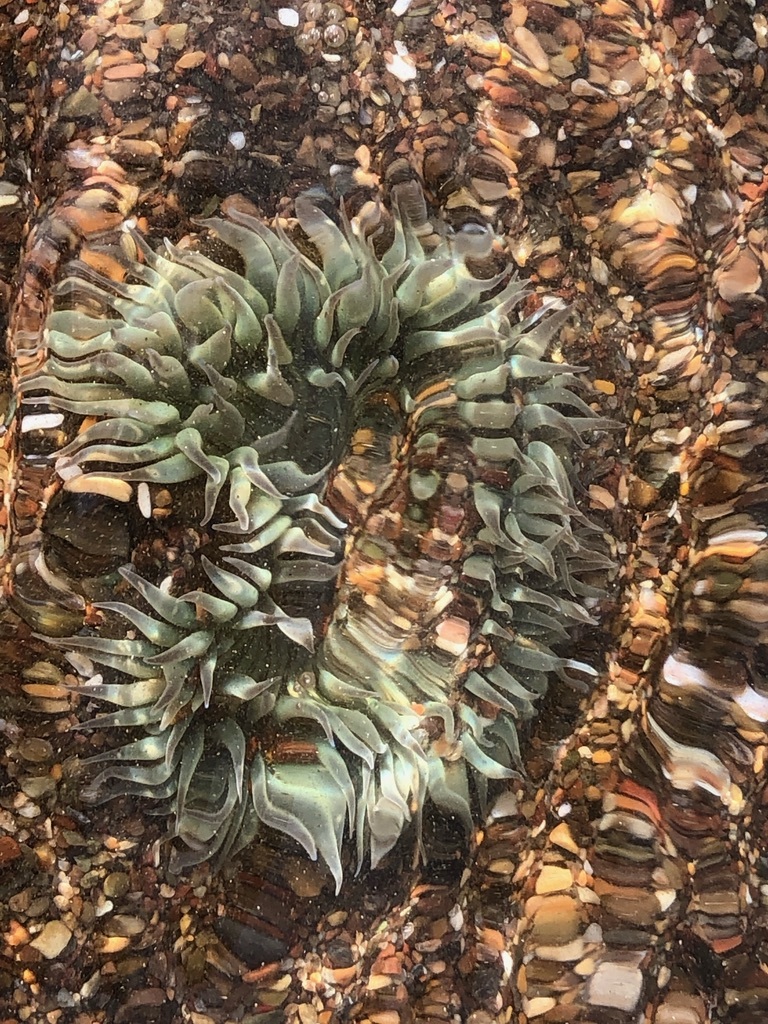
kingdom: Animalia
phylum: Cnidaria
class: Anthozoa
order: Actiniaria
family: Actiniidae
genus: Anthopleura
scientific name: Anthopleura sola
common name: Sun anemone
